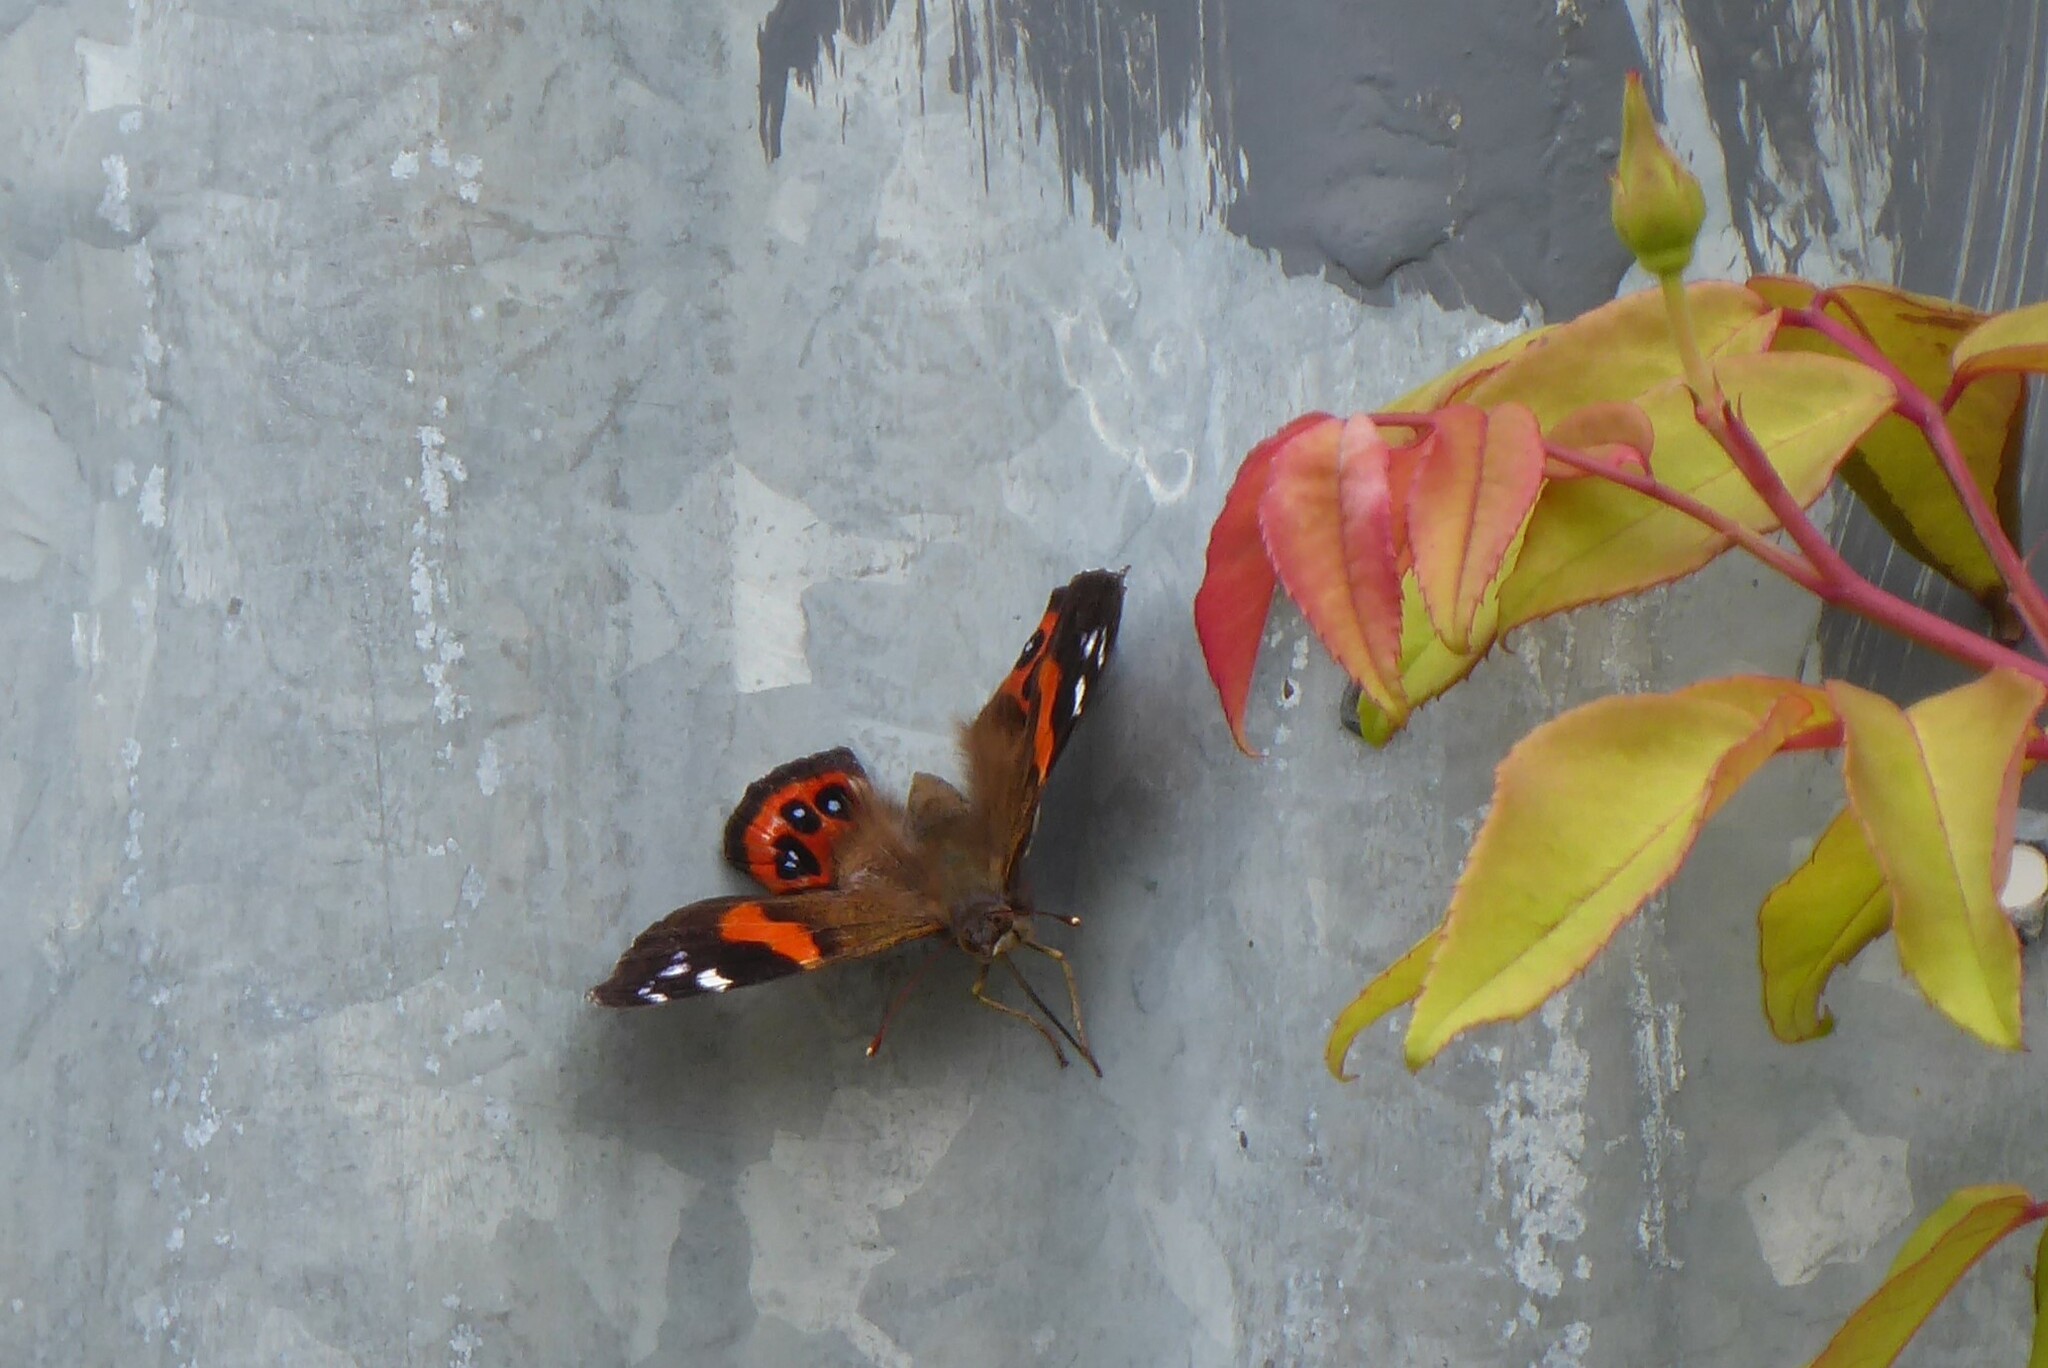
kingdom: Animalia
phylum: Arthropoda
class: Insecta
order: Lepidoptera
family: Nymphalidae
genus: Vanessa
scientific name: Vanessa gonerilla
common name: New zealand red admiral
